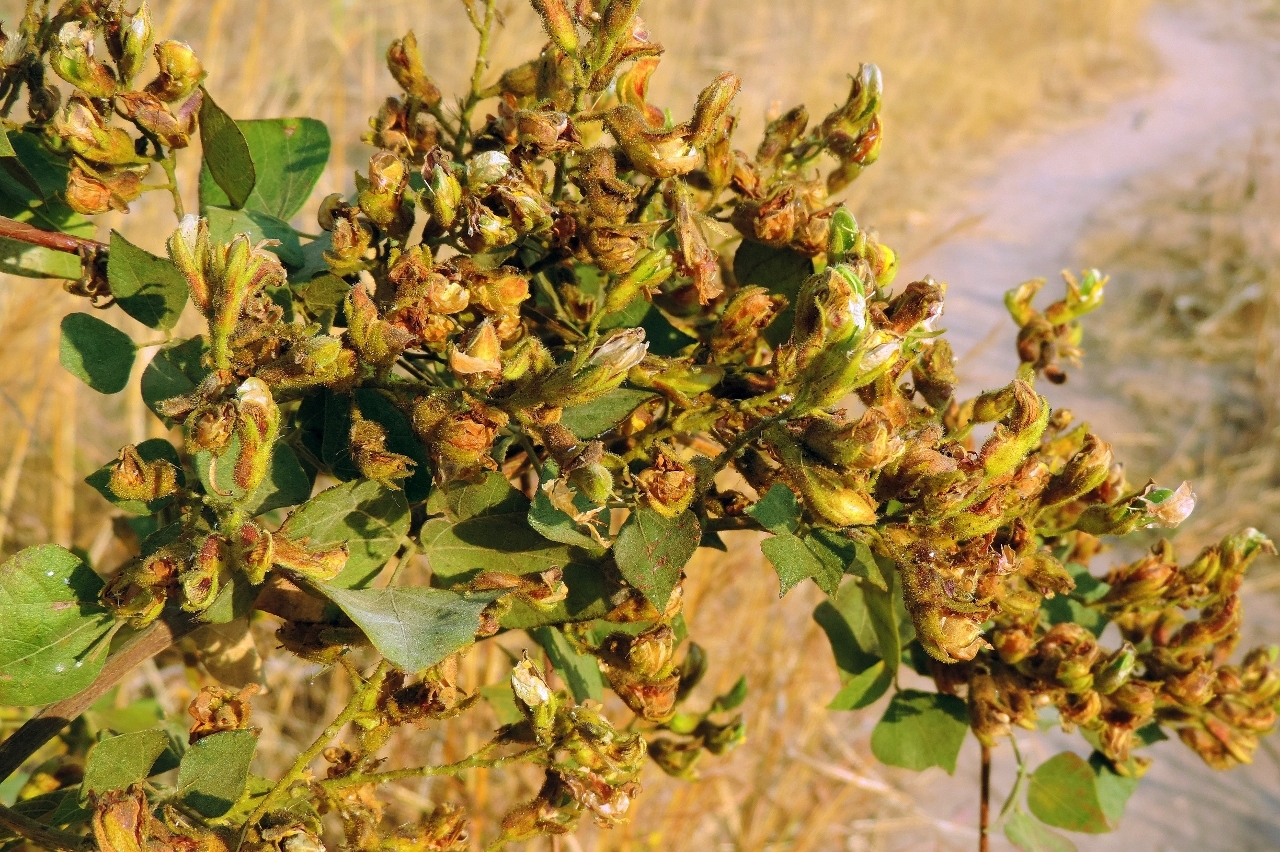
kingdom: Plantae
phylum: Tracheophyta
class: Magnoliopsida
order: Fabales
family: Fabaceae
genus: Rhynchosia
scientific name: Rhynchosia resinosa
